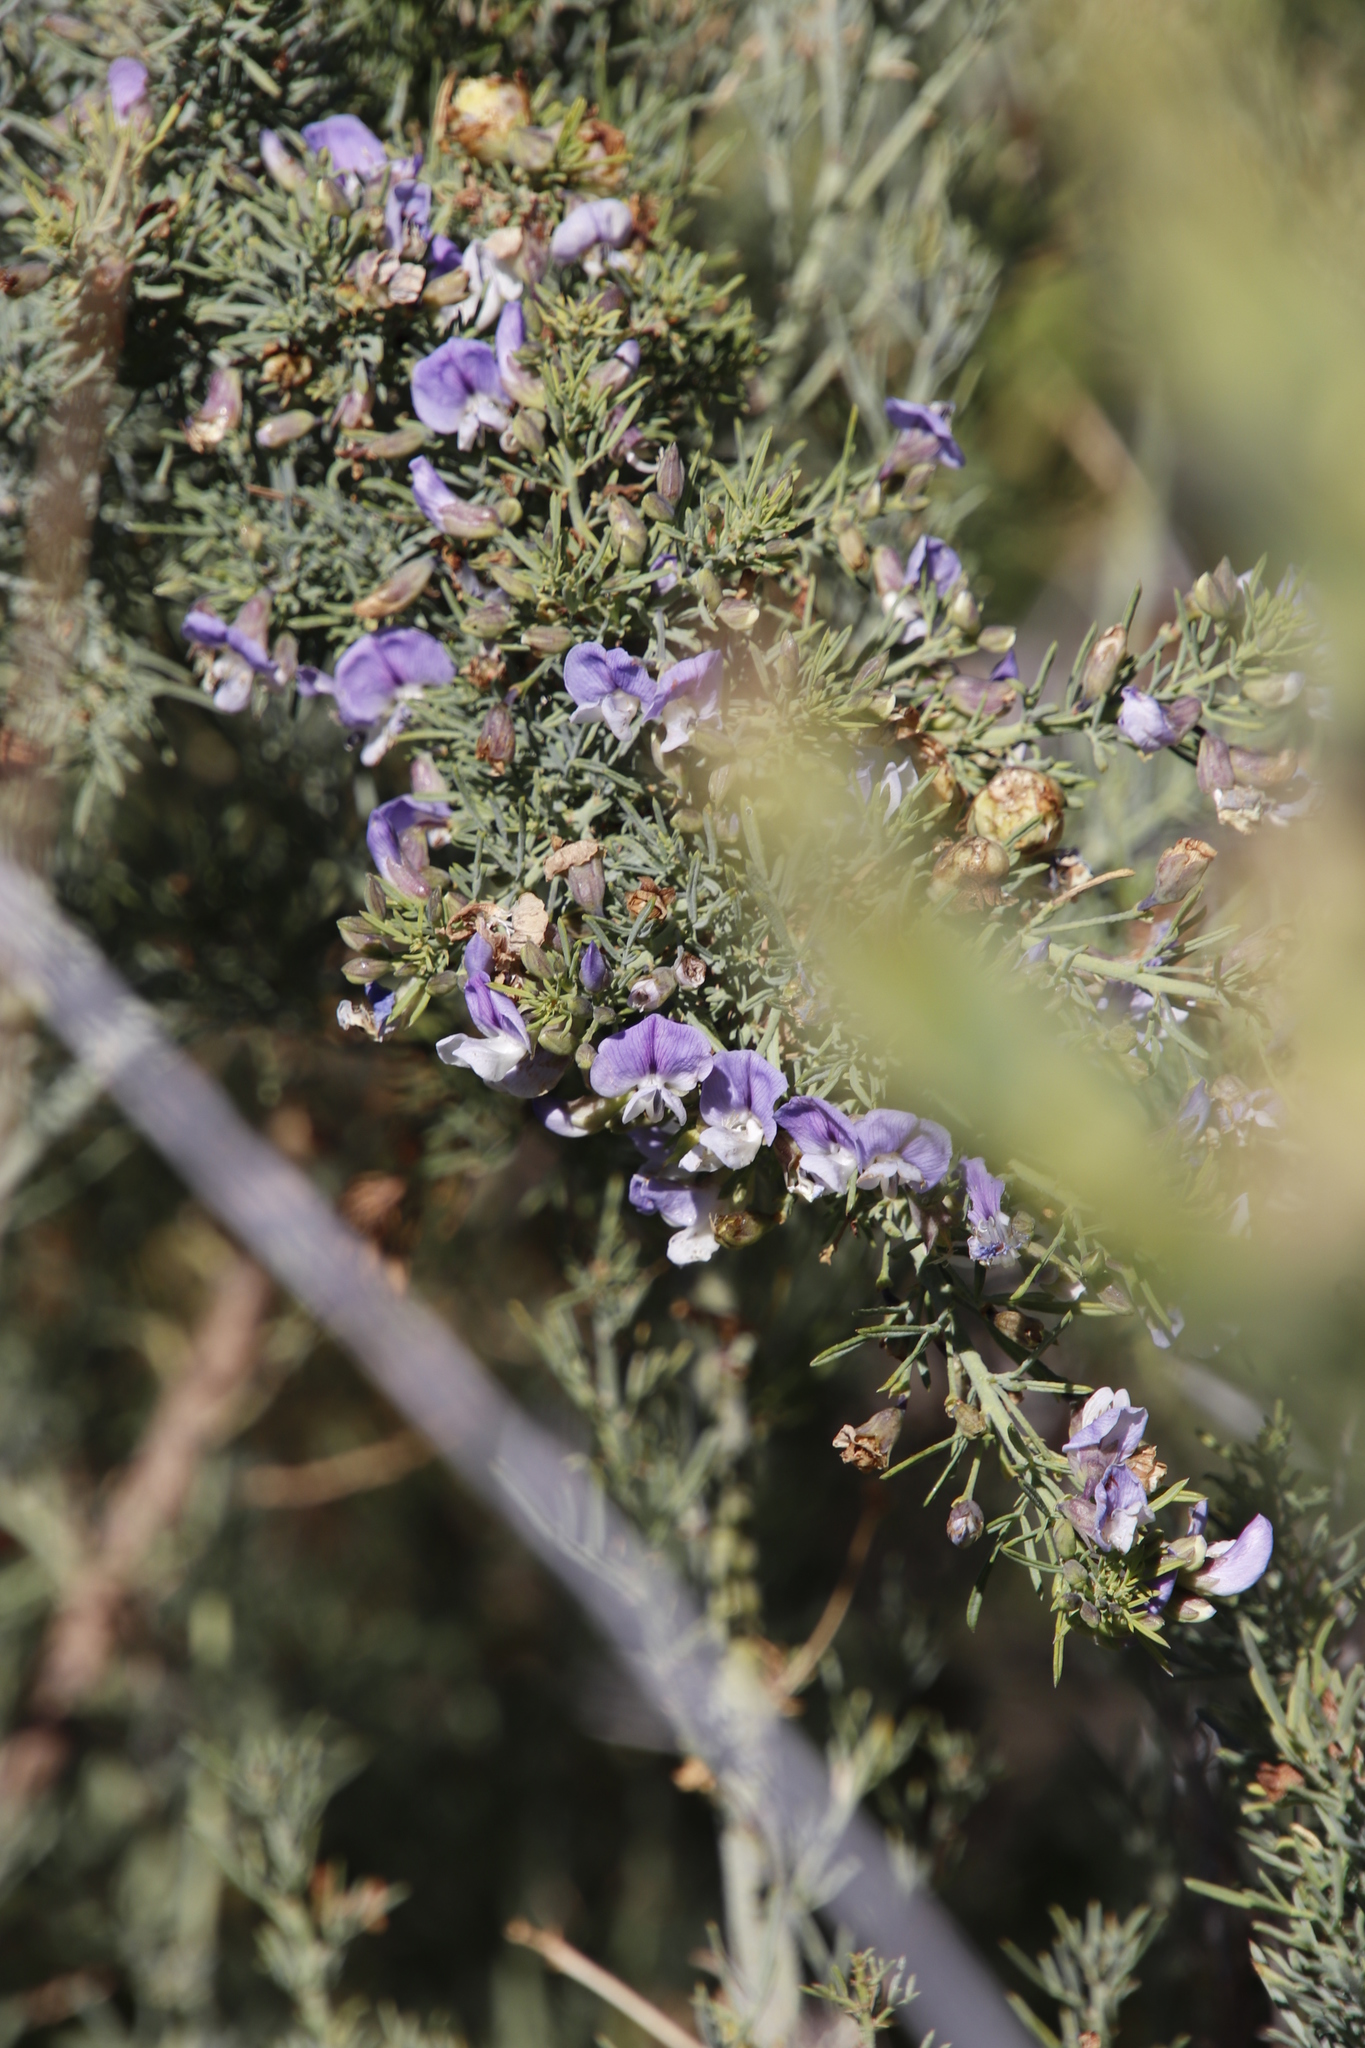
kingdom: Plantae
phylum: Tracheophyta
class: Magnoliopsida
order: Fabales
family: Fabaceae
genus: Psoralea
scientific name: Psoralea verrucosa
